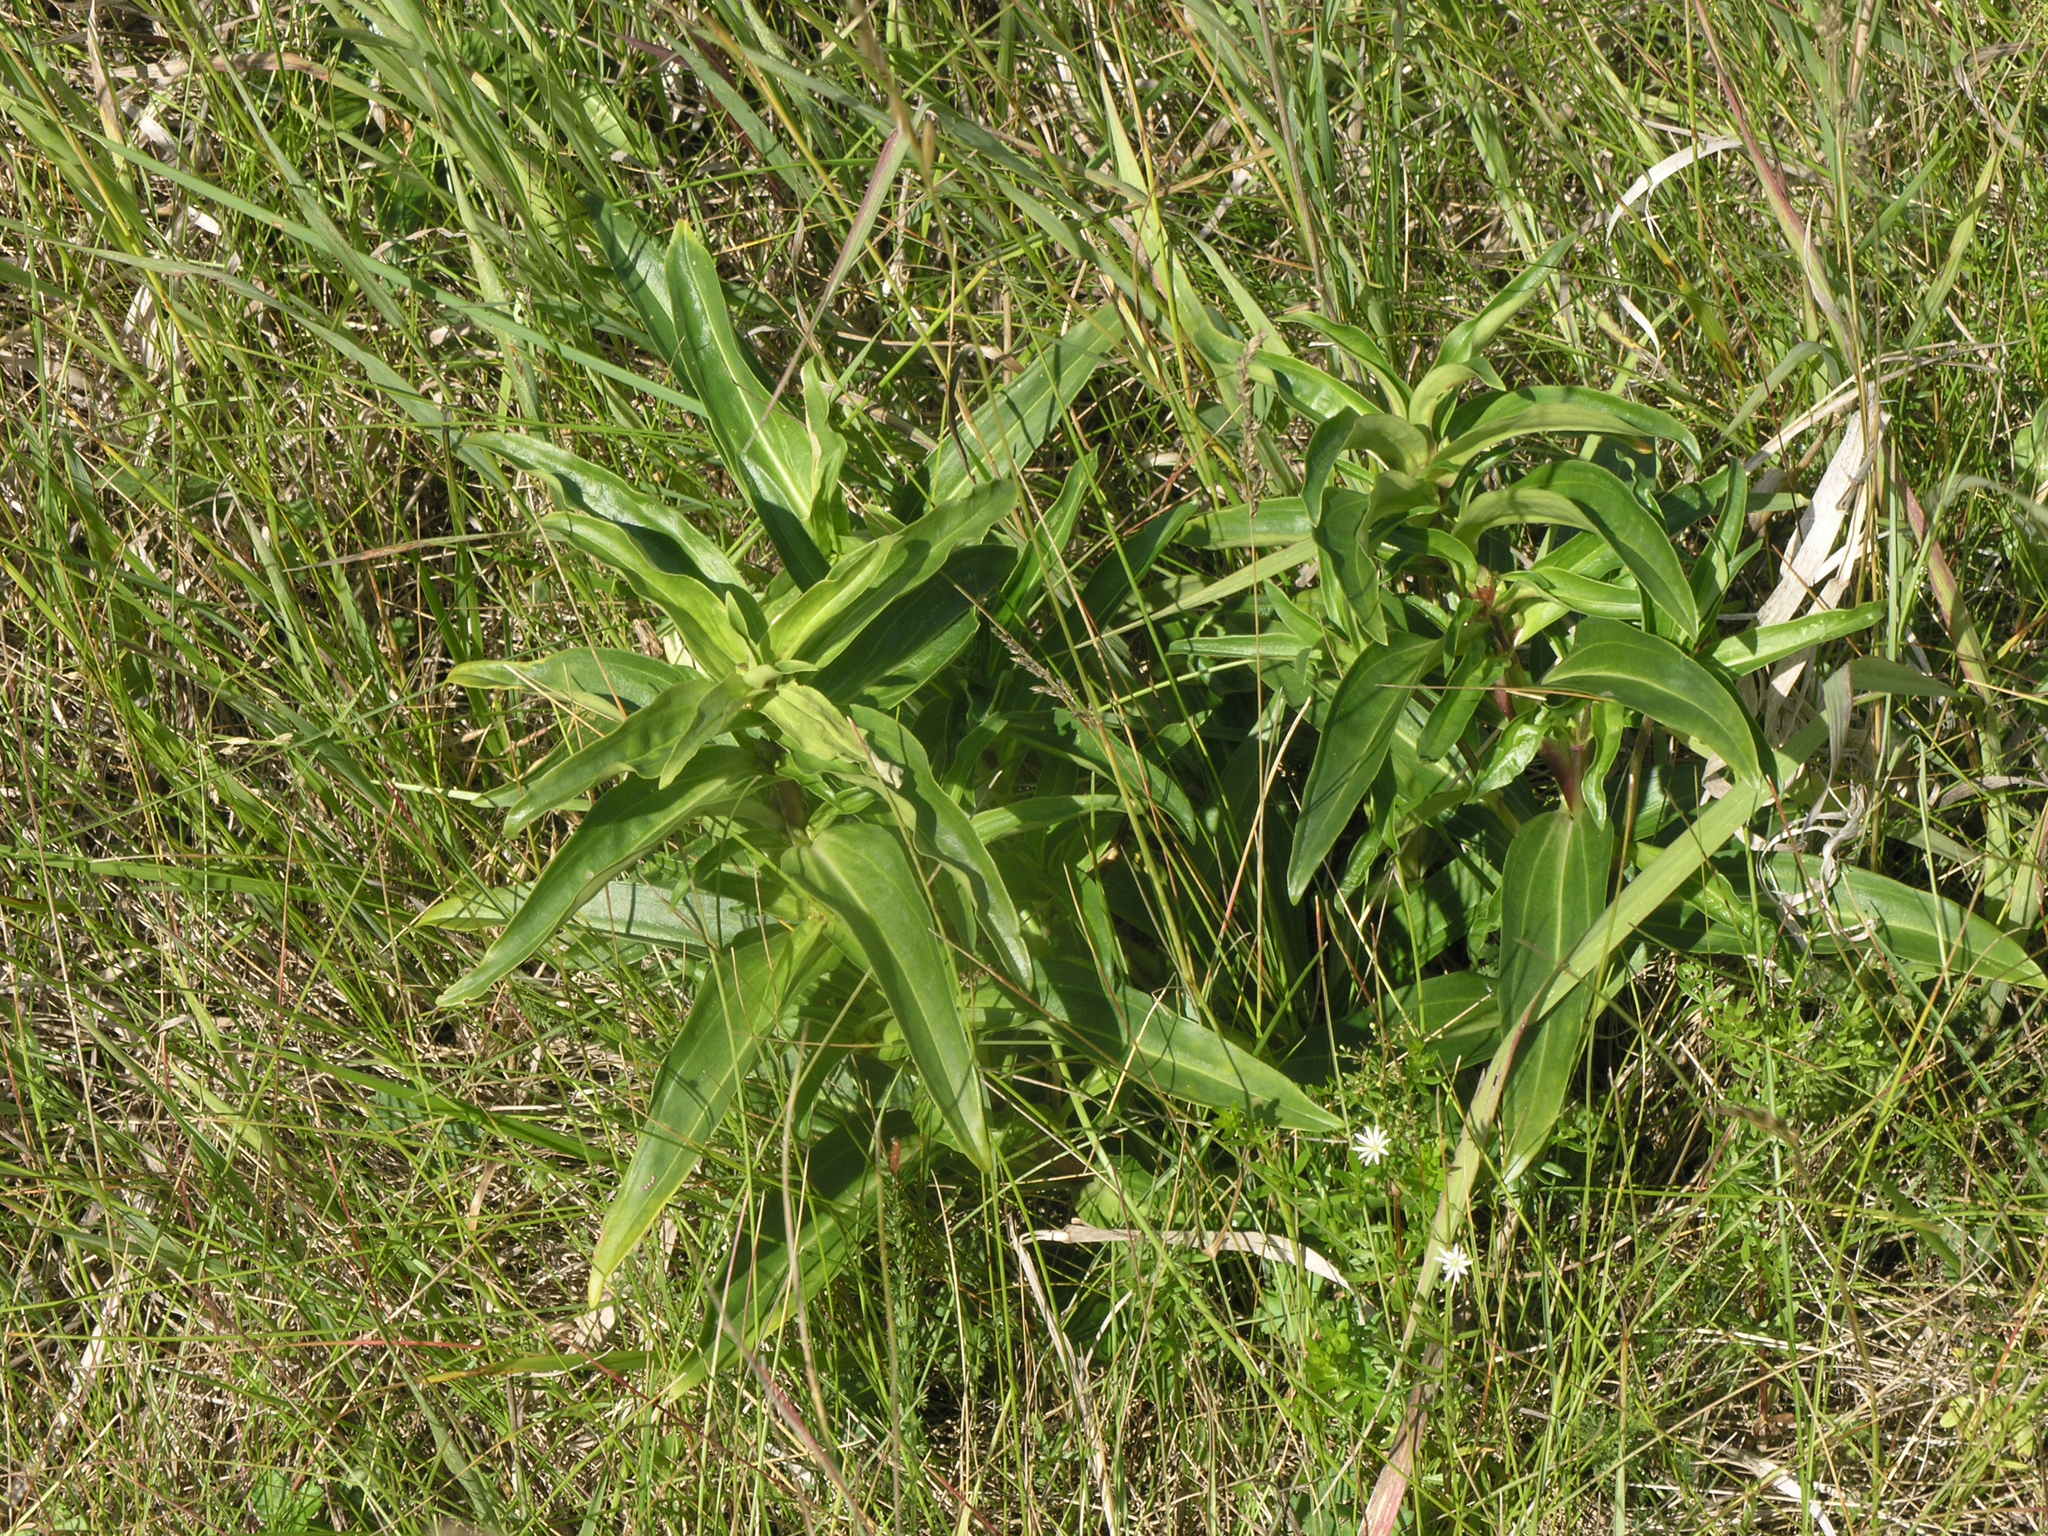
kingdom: Plantae
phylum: Tracheophyta
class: Magnoliopsida
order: Gentianales
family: Gentianaceae
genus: Gentiana
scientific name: Gentiana cruciata
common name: Cross gentian
